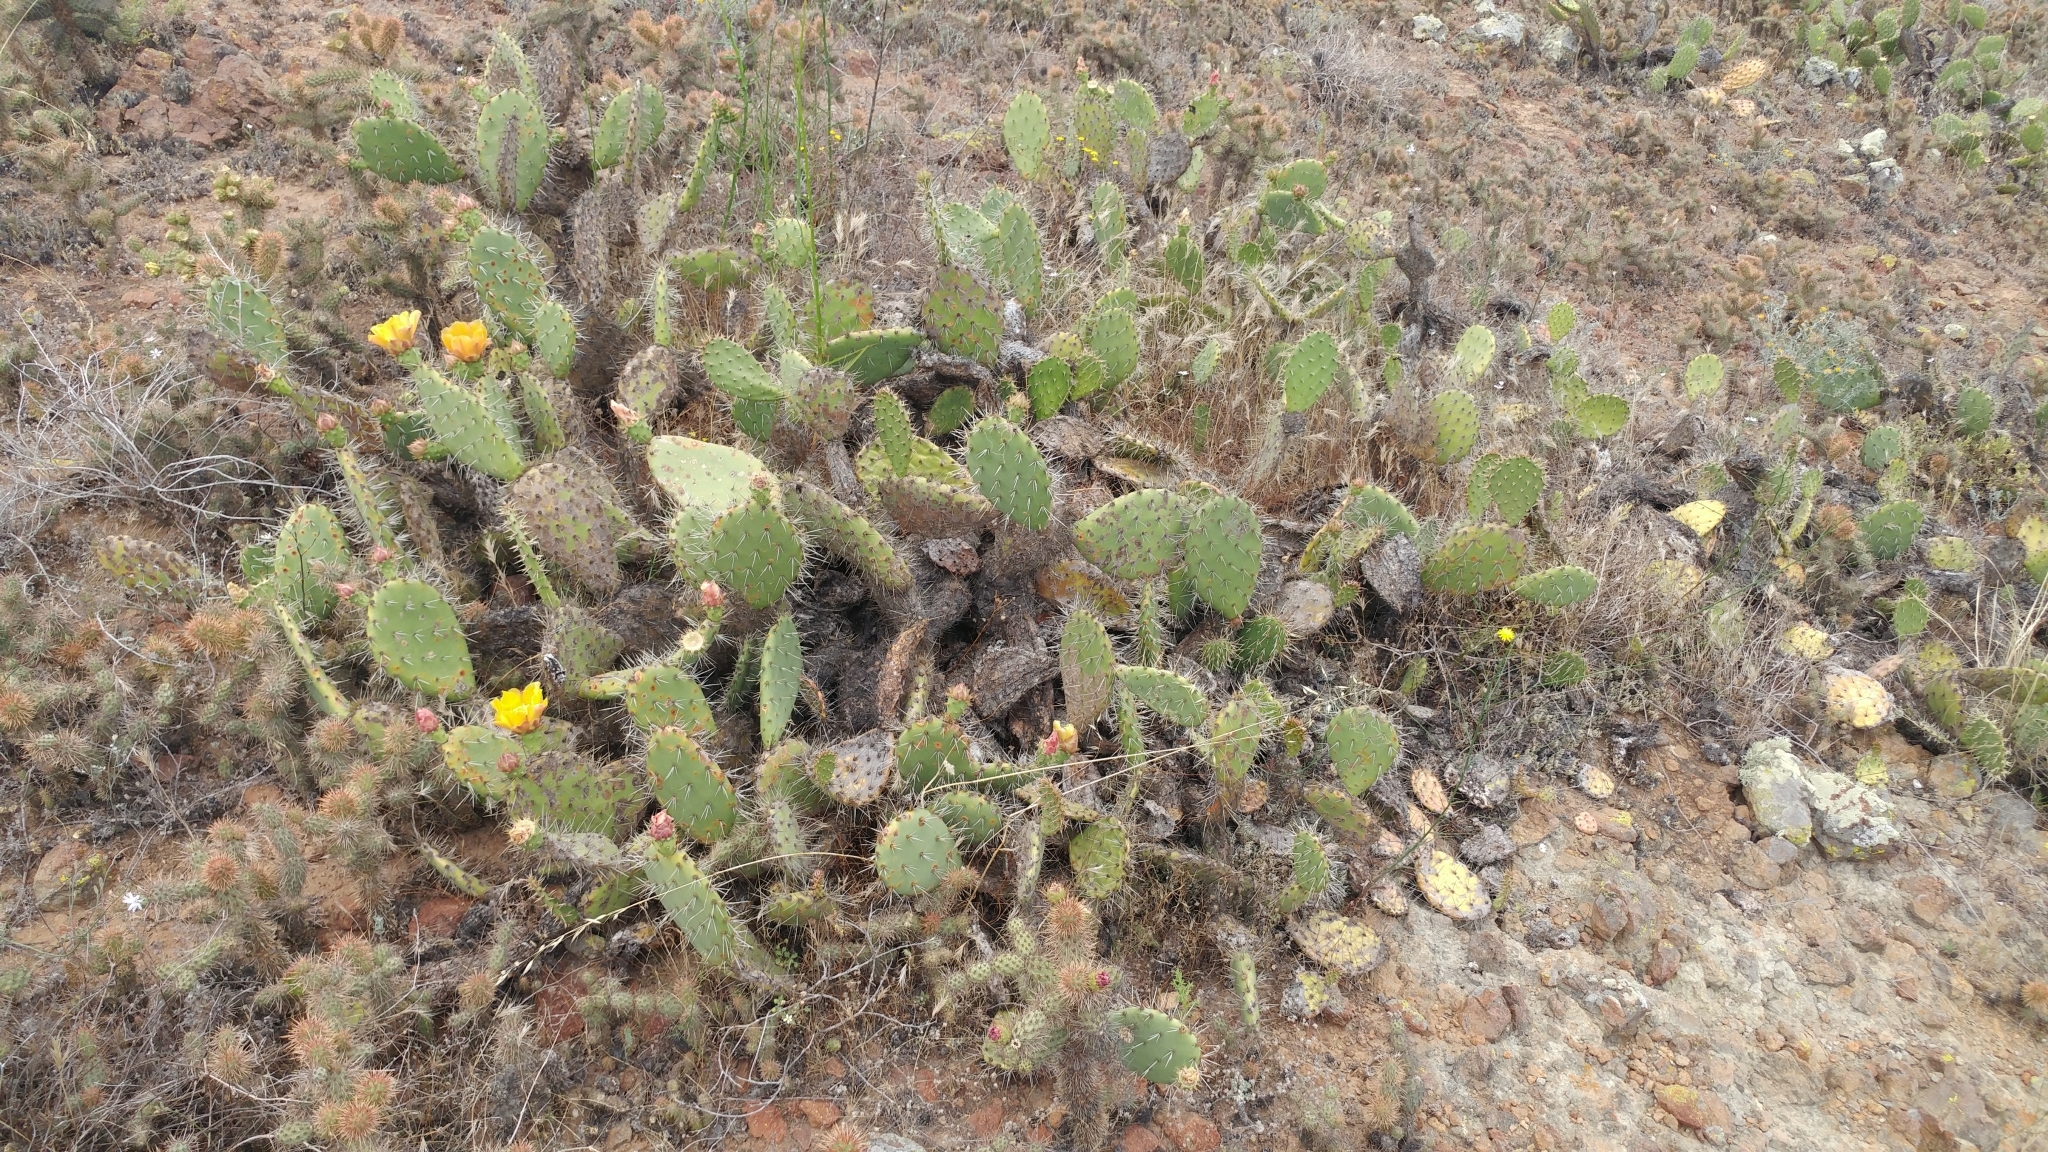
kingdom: Plantae
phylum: Tracheophyta
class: Magnoliopsida
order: Caryophyllales
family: Cactaceae
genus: Opuntia
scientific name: Opuntia littoralis
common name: Coastal prickly-pear
